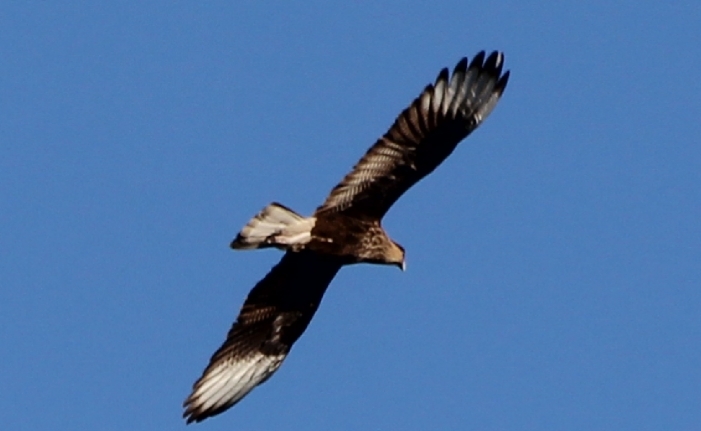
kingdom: Animalia
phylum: Chordata
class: Aves
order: Falconiformes
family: Falconidae
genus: Caracara
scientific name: Caracara plancus
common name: Southern caracara
